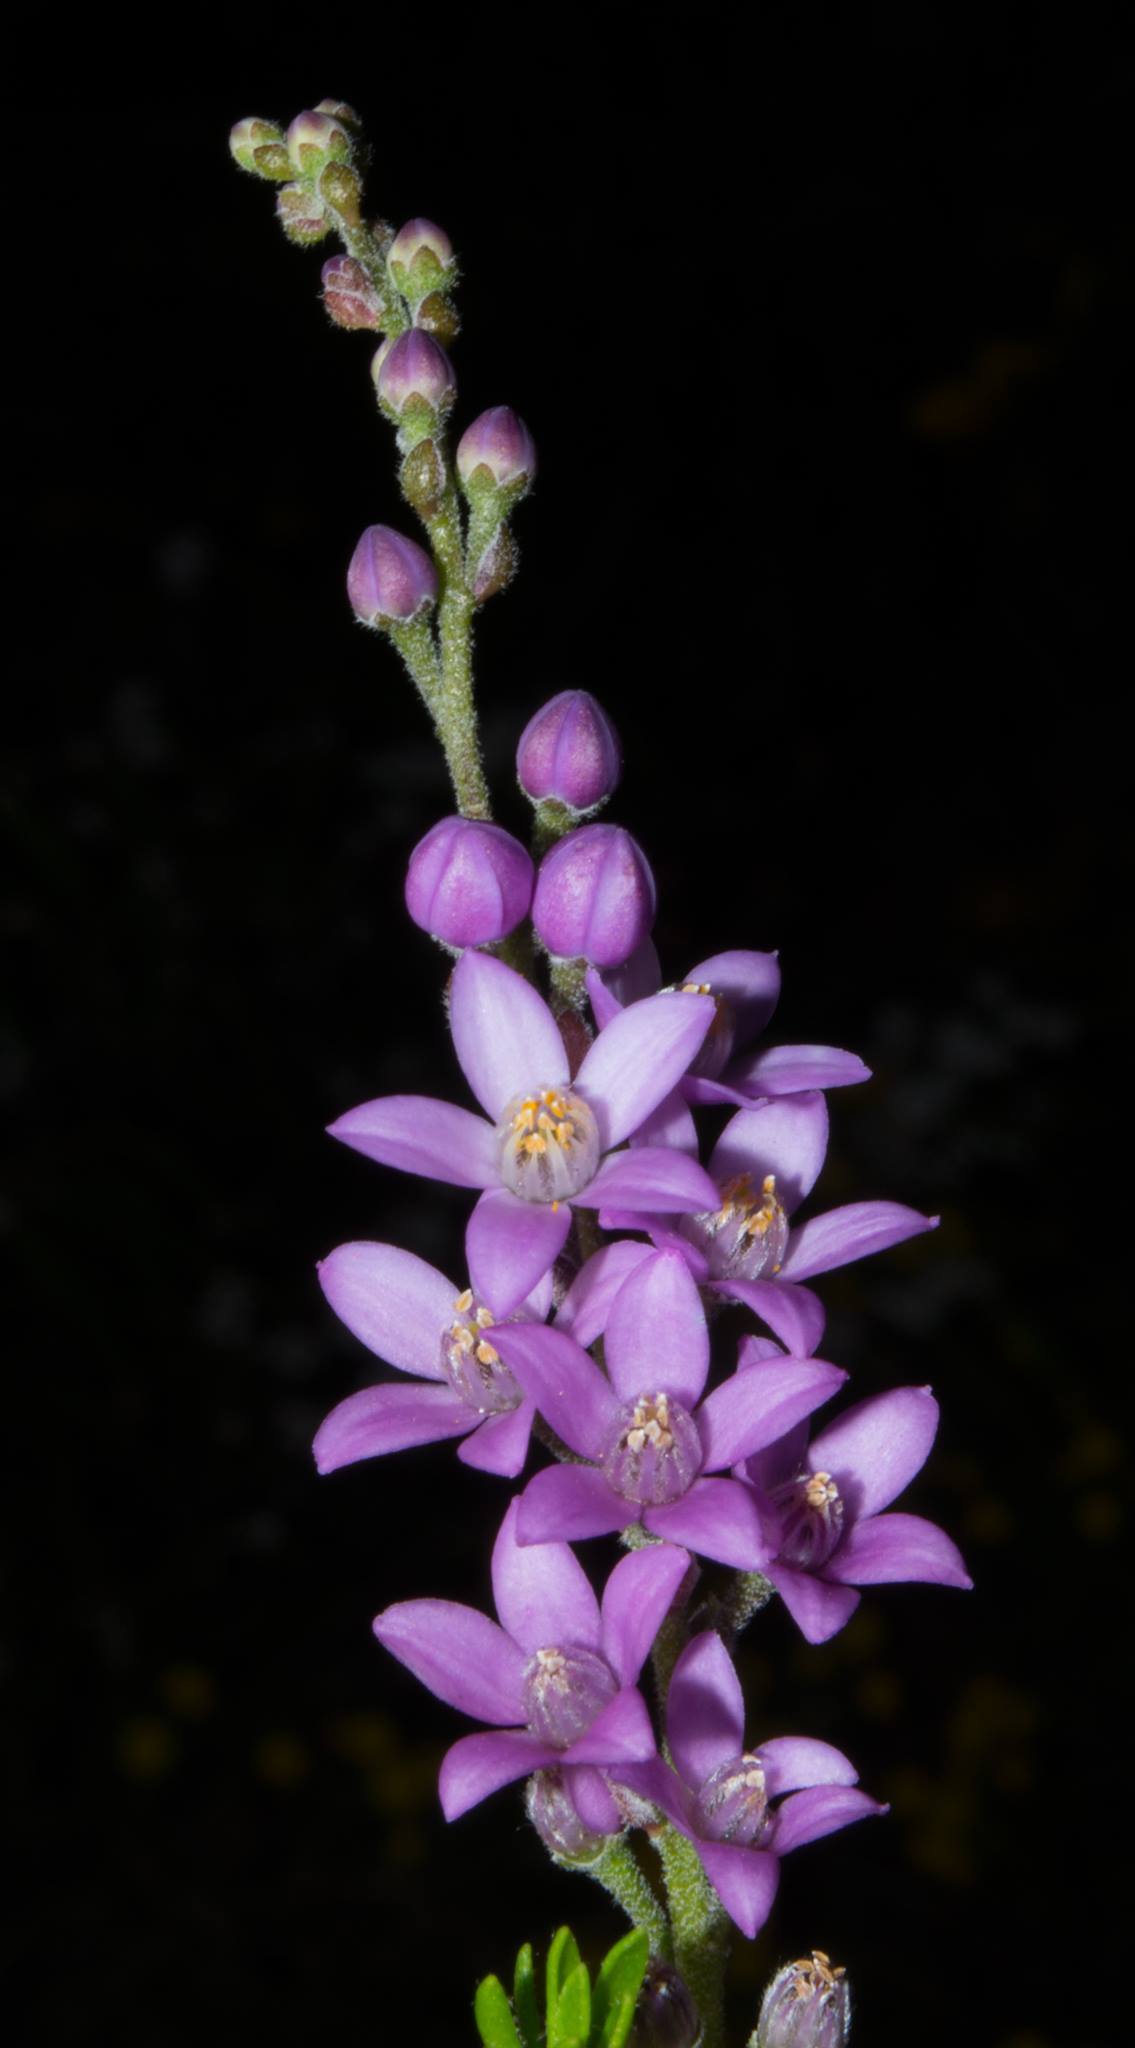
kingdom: Plantae
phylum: Tracheophyta
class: Magnoliopsida
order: Sapindales
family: Rutaceae
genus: Philotheca
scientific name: Philotheca spicata
